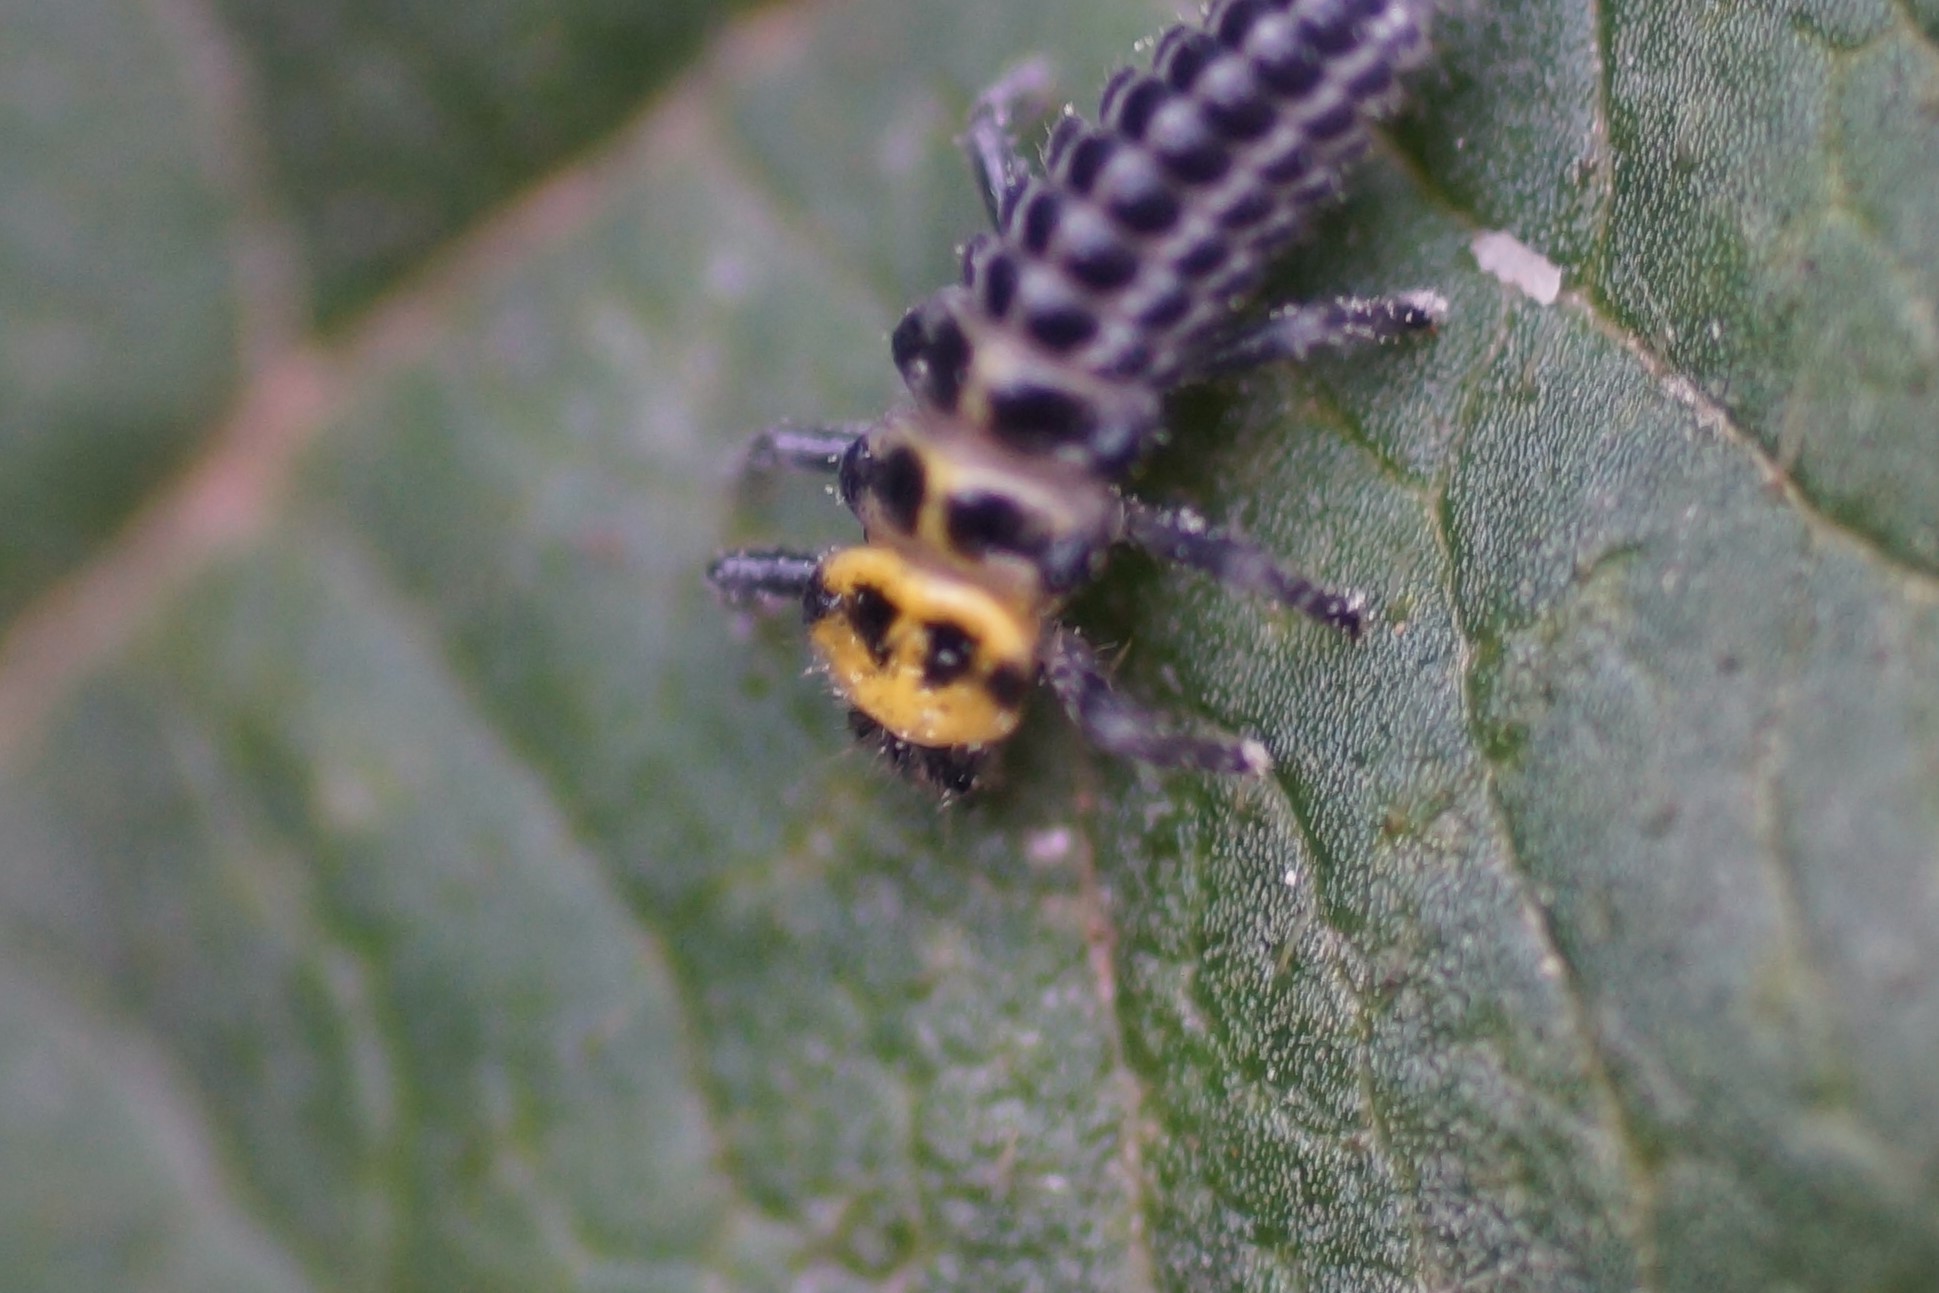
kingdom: Animalia
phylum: Arthropoda
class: Insecta
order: Coleoptera
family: Coccinellidae
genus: Illeis
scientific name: Illeis galbula
